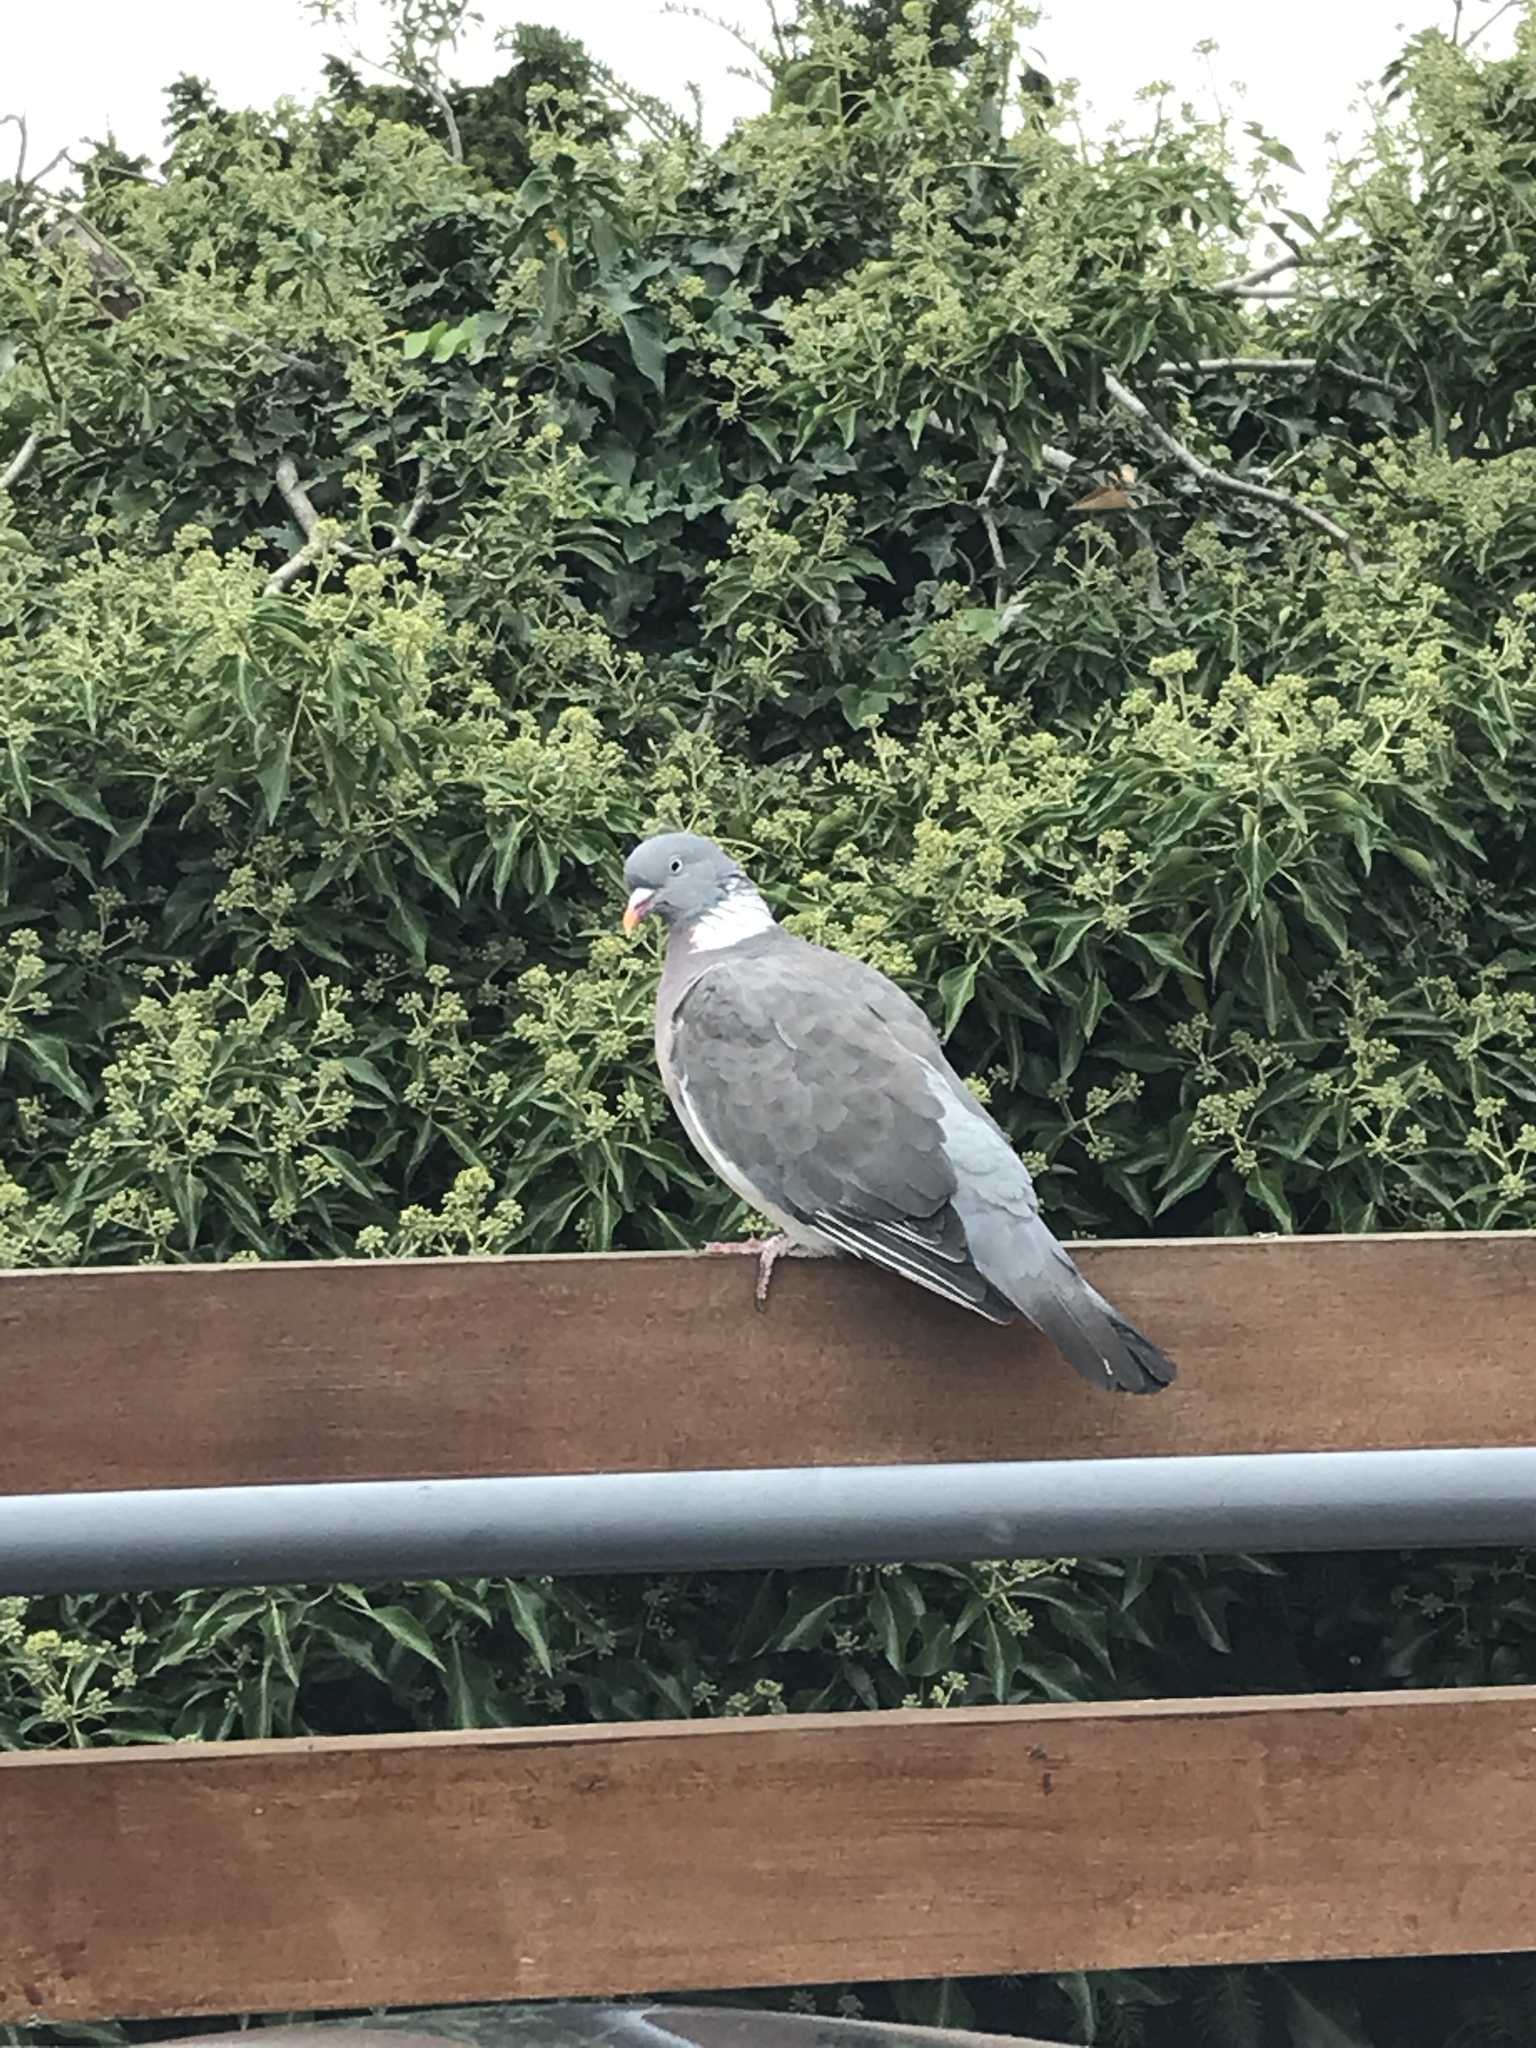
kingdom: Animalia
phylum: Chordata
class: Aves
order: Columbiformes
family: Columbidae
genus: Columba
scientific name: Columba palumbus
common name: Common wood pigeon
